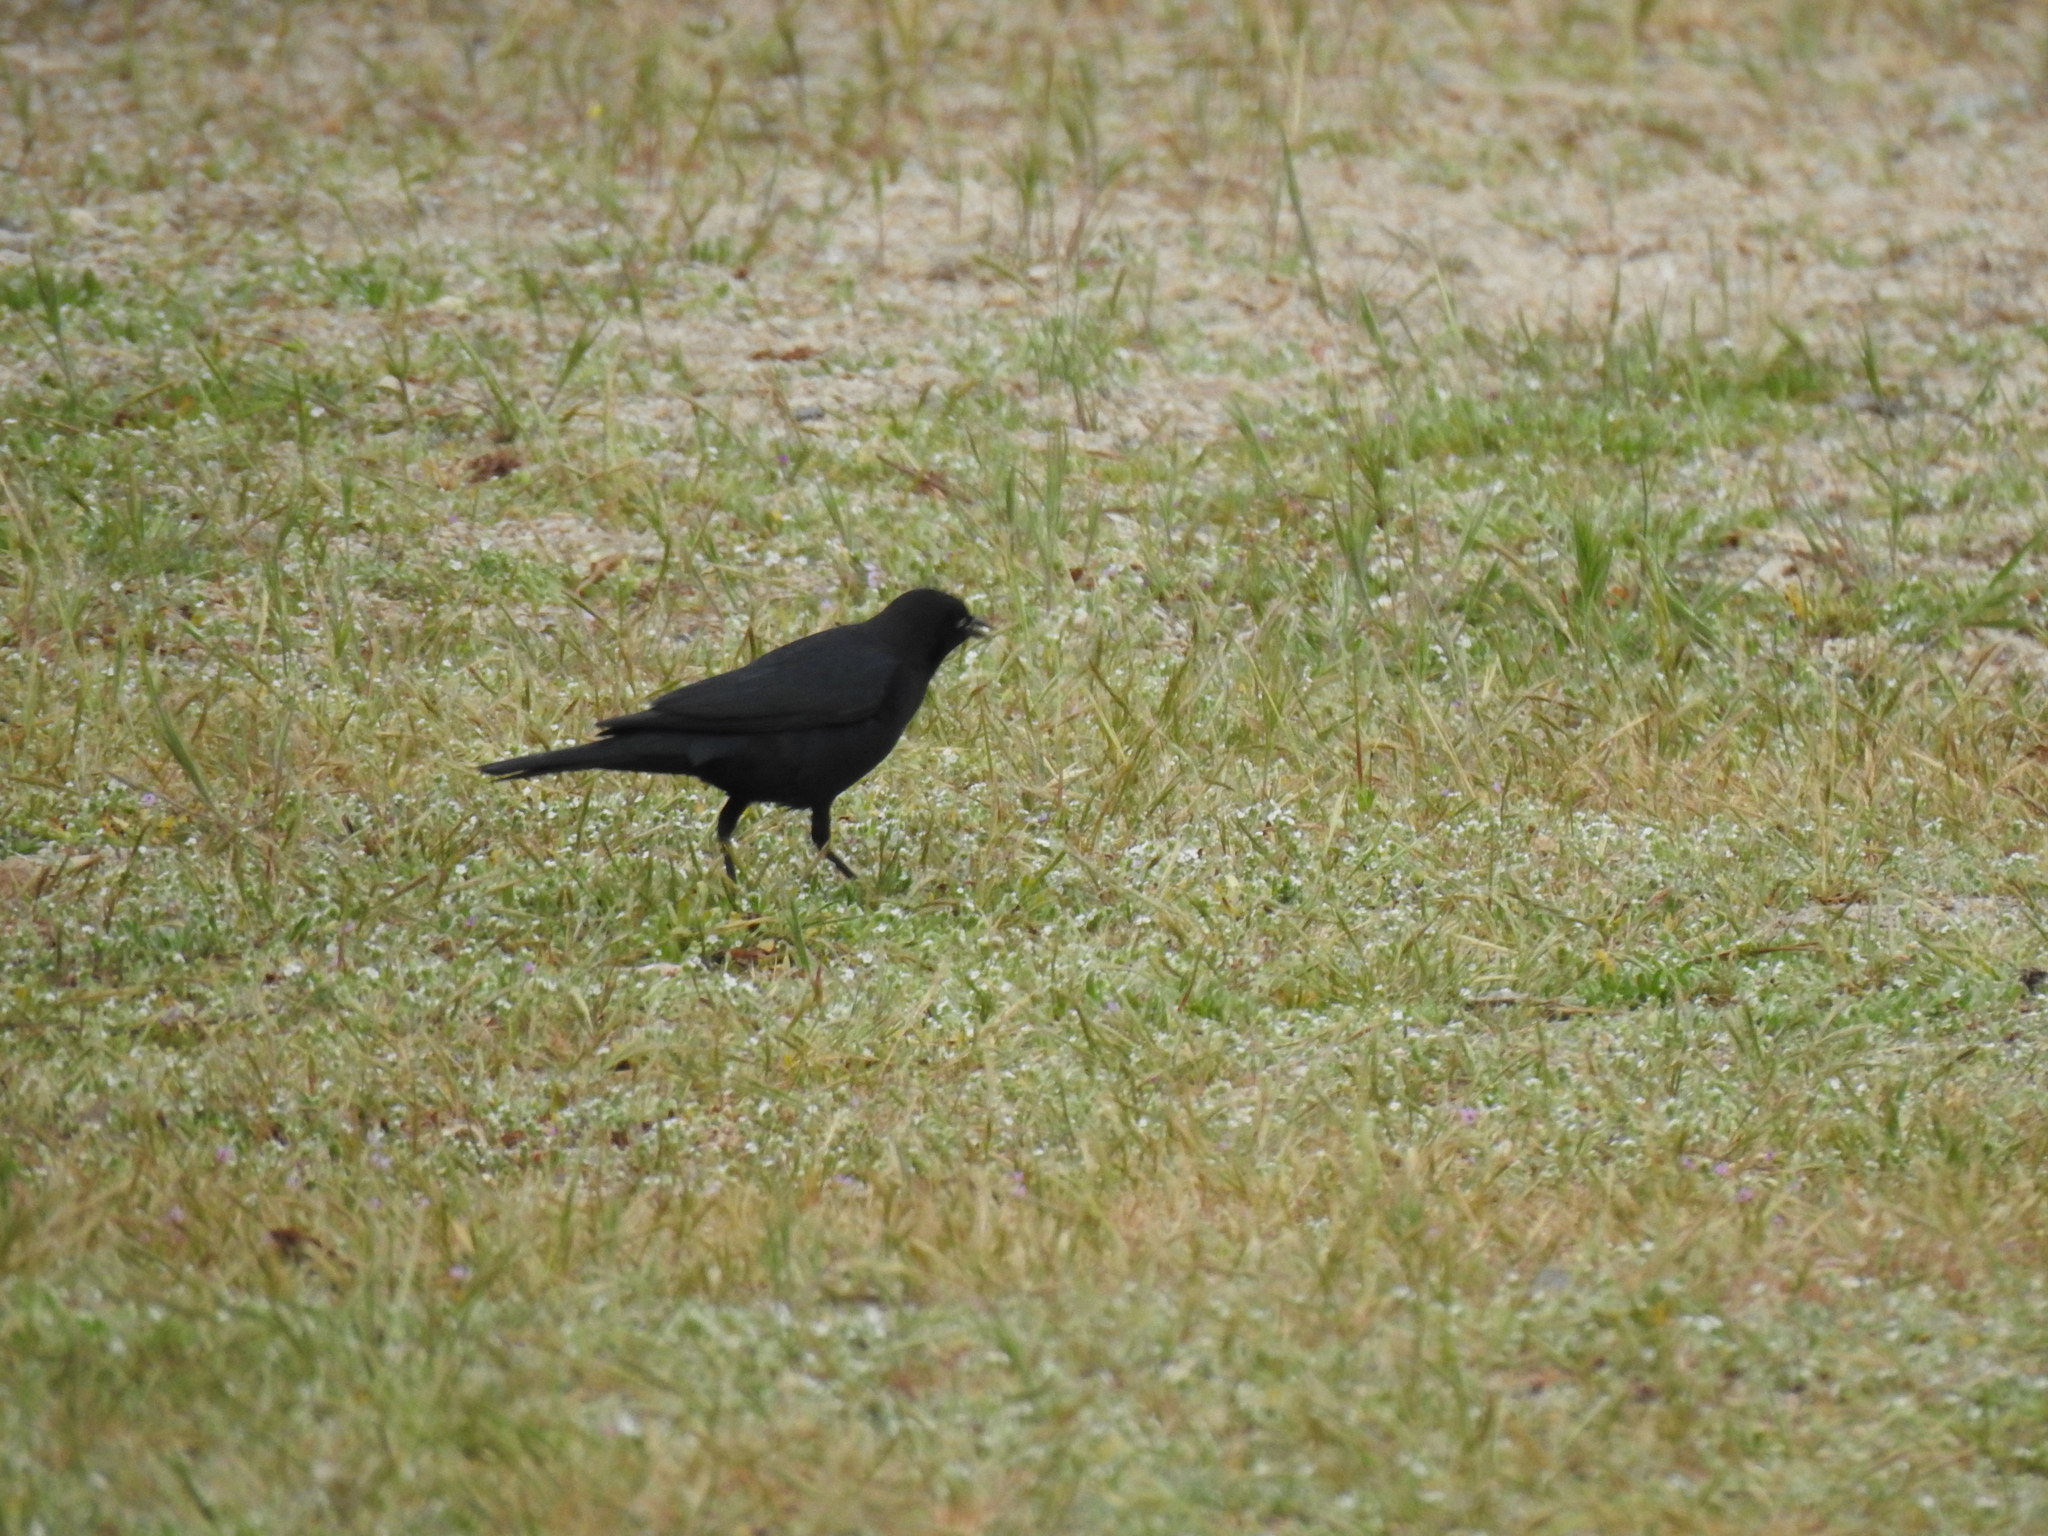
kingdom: Animalia
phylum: Chordata
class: Aves
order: Passeriformes
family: Icteridae
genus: Euphagus
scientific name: Euphagus cyanocephalus
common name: Brewer's blackbird
